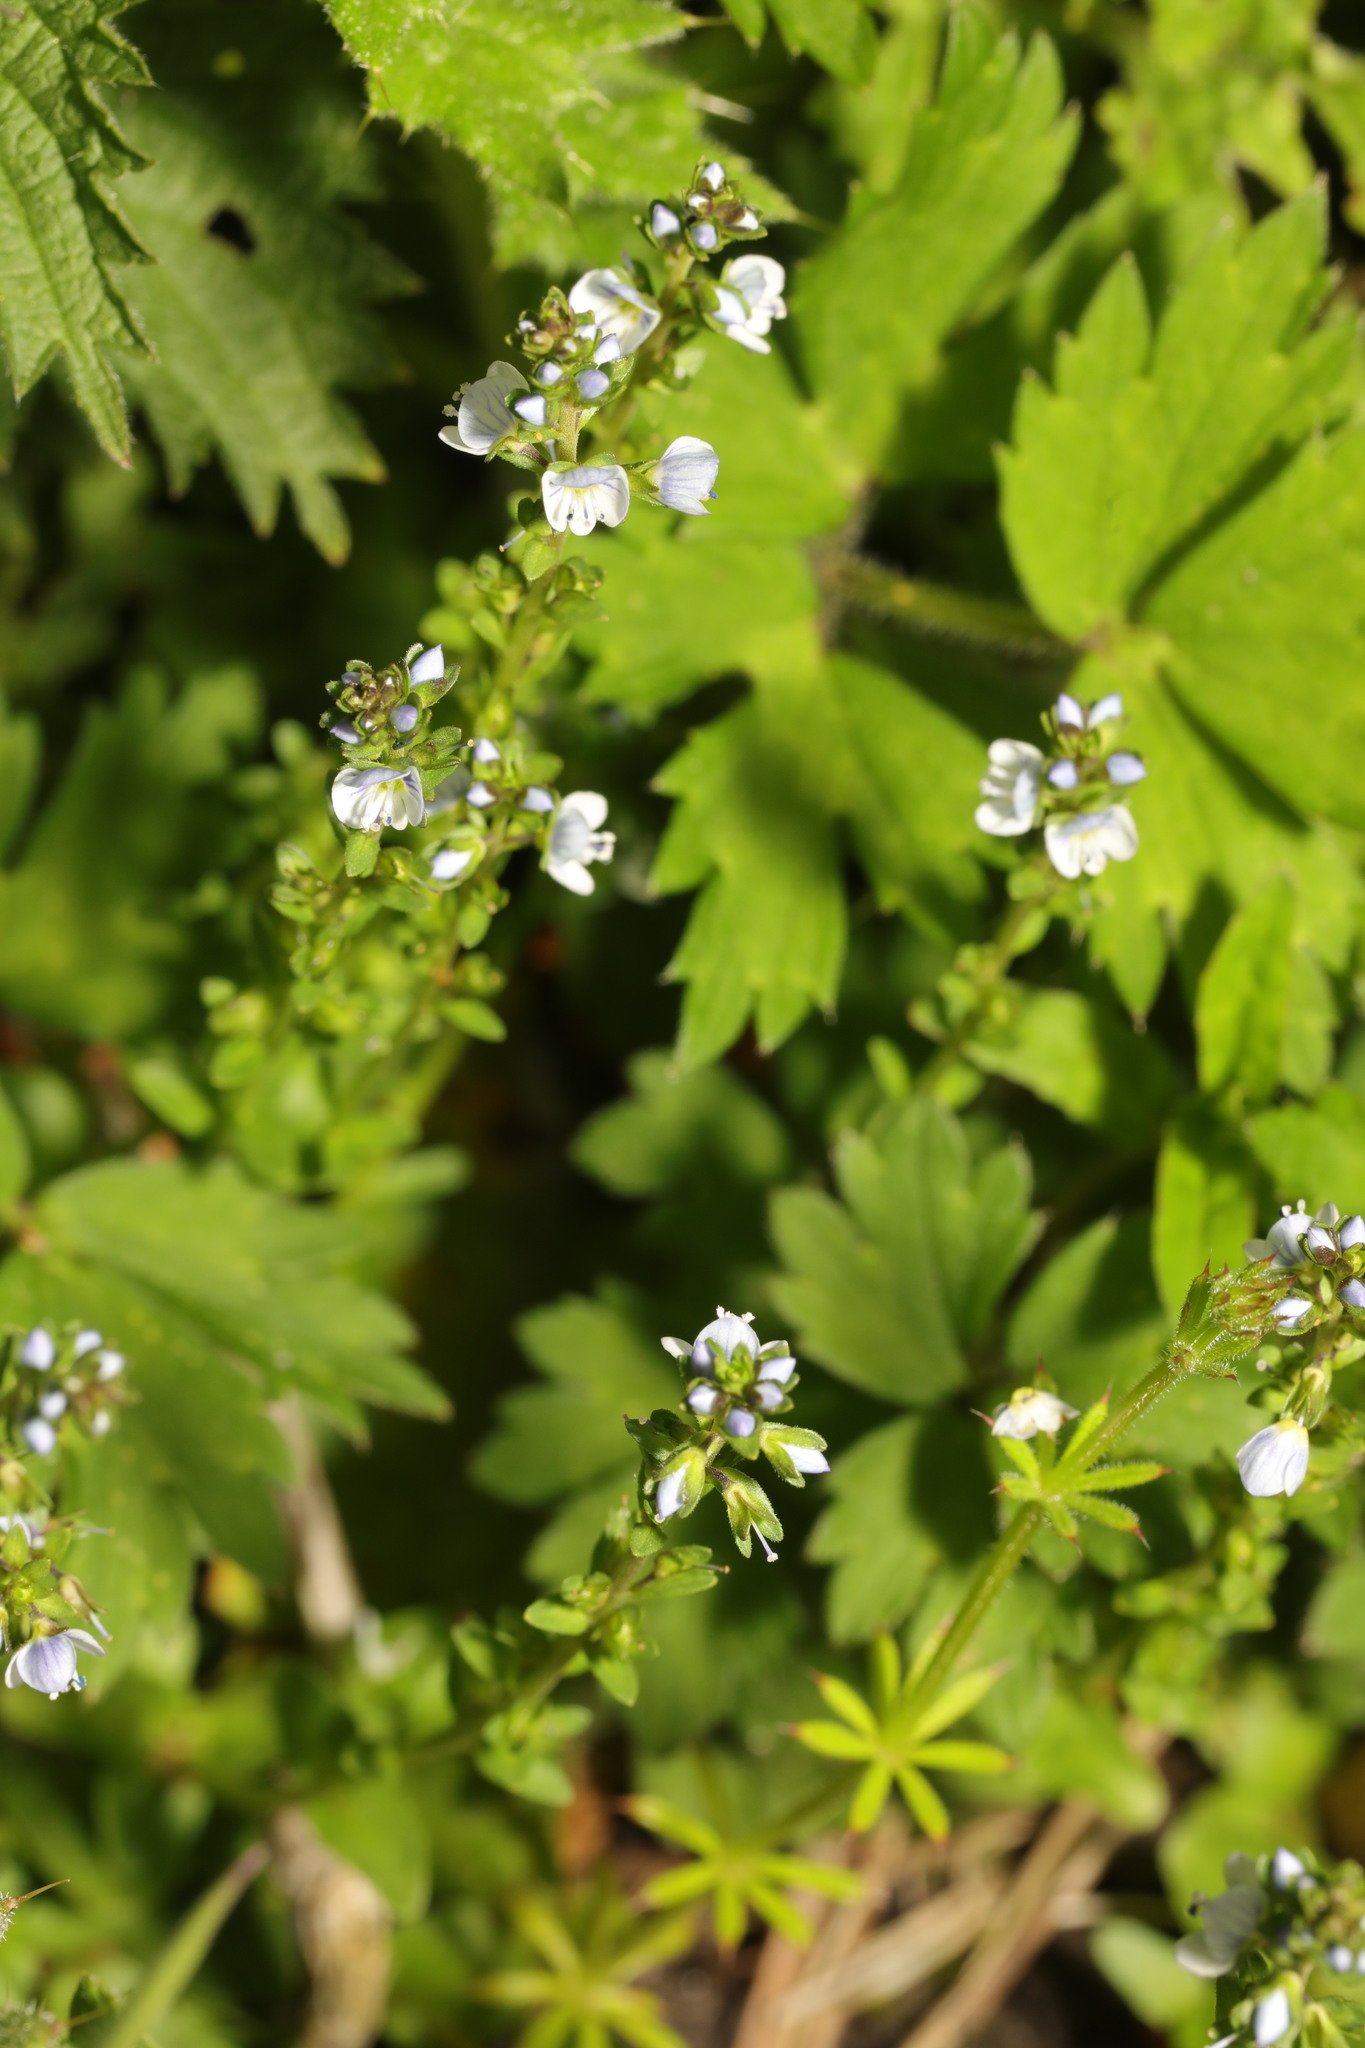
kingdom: Plantae
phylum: Tracheophyta
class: Magnoliopsida
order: Lamiales
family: Plantaginaceae
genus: Veronica
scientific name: Veronica serpyllifolia
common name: Thyme-leaved speedwell
